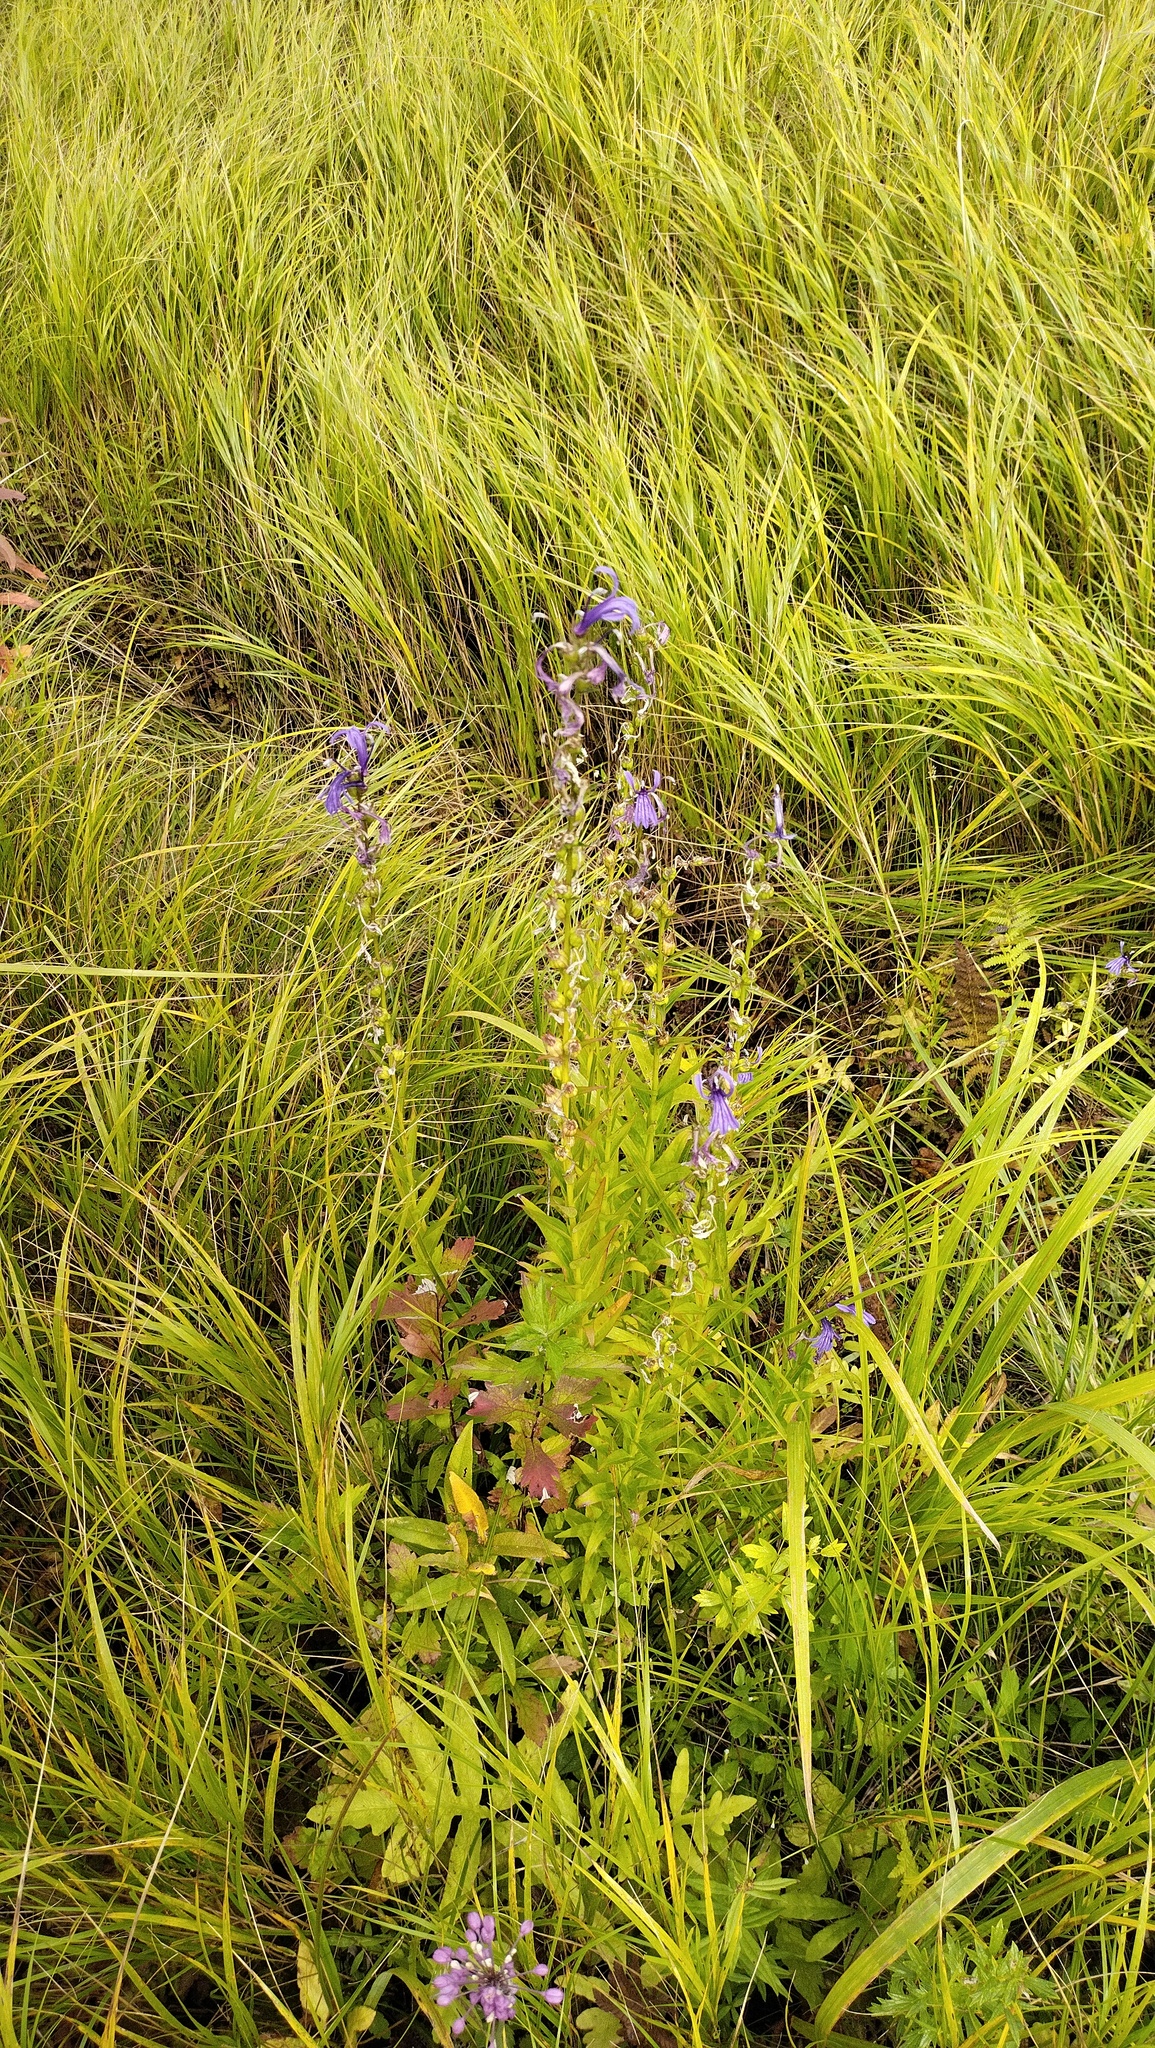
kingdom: Plantae
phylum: Tracheophyta
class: Magnoliopsida
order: Asterales
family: Campanulaceae
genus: Lobelia
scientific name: Lobelia sessilifolia
